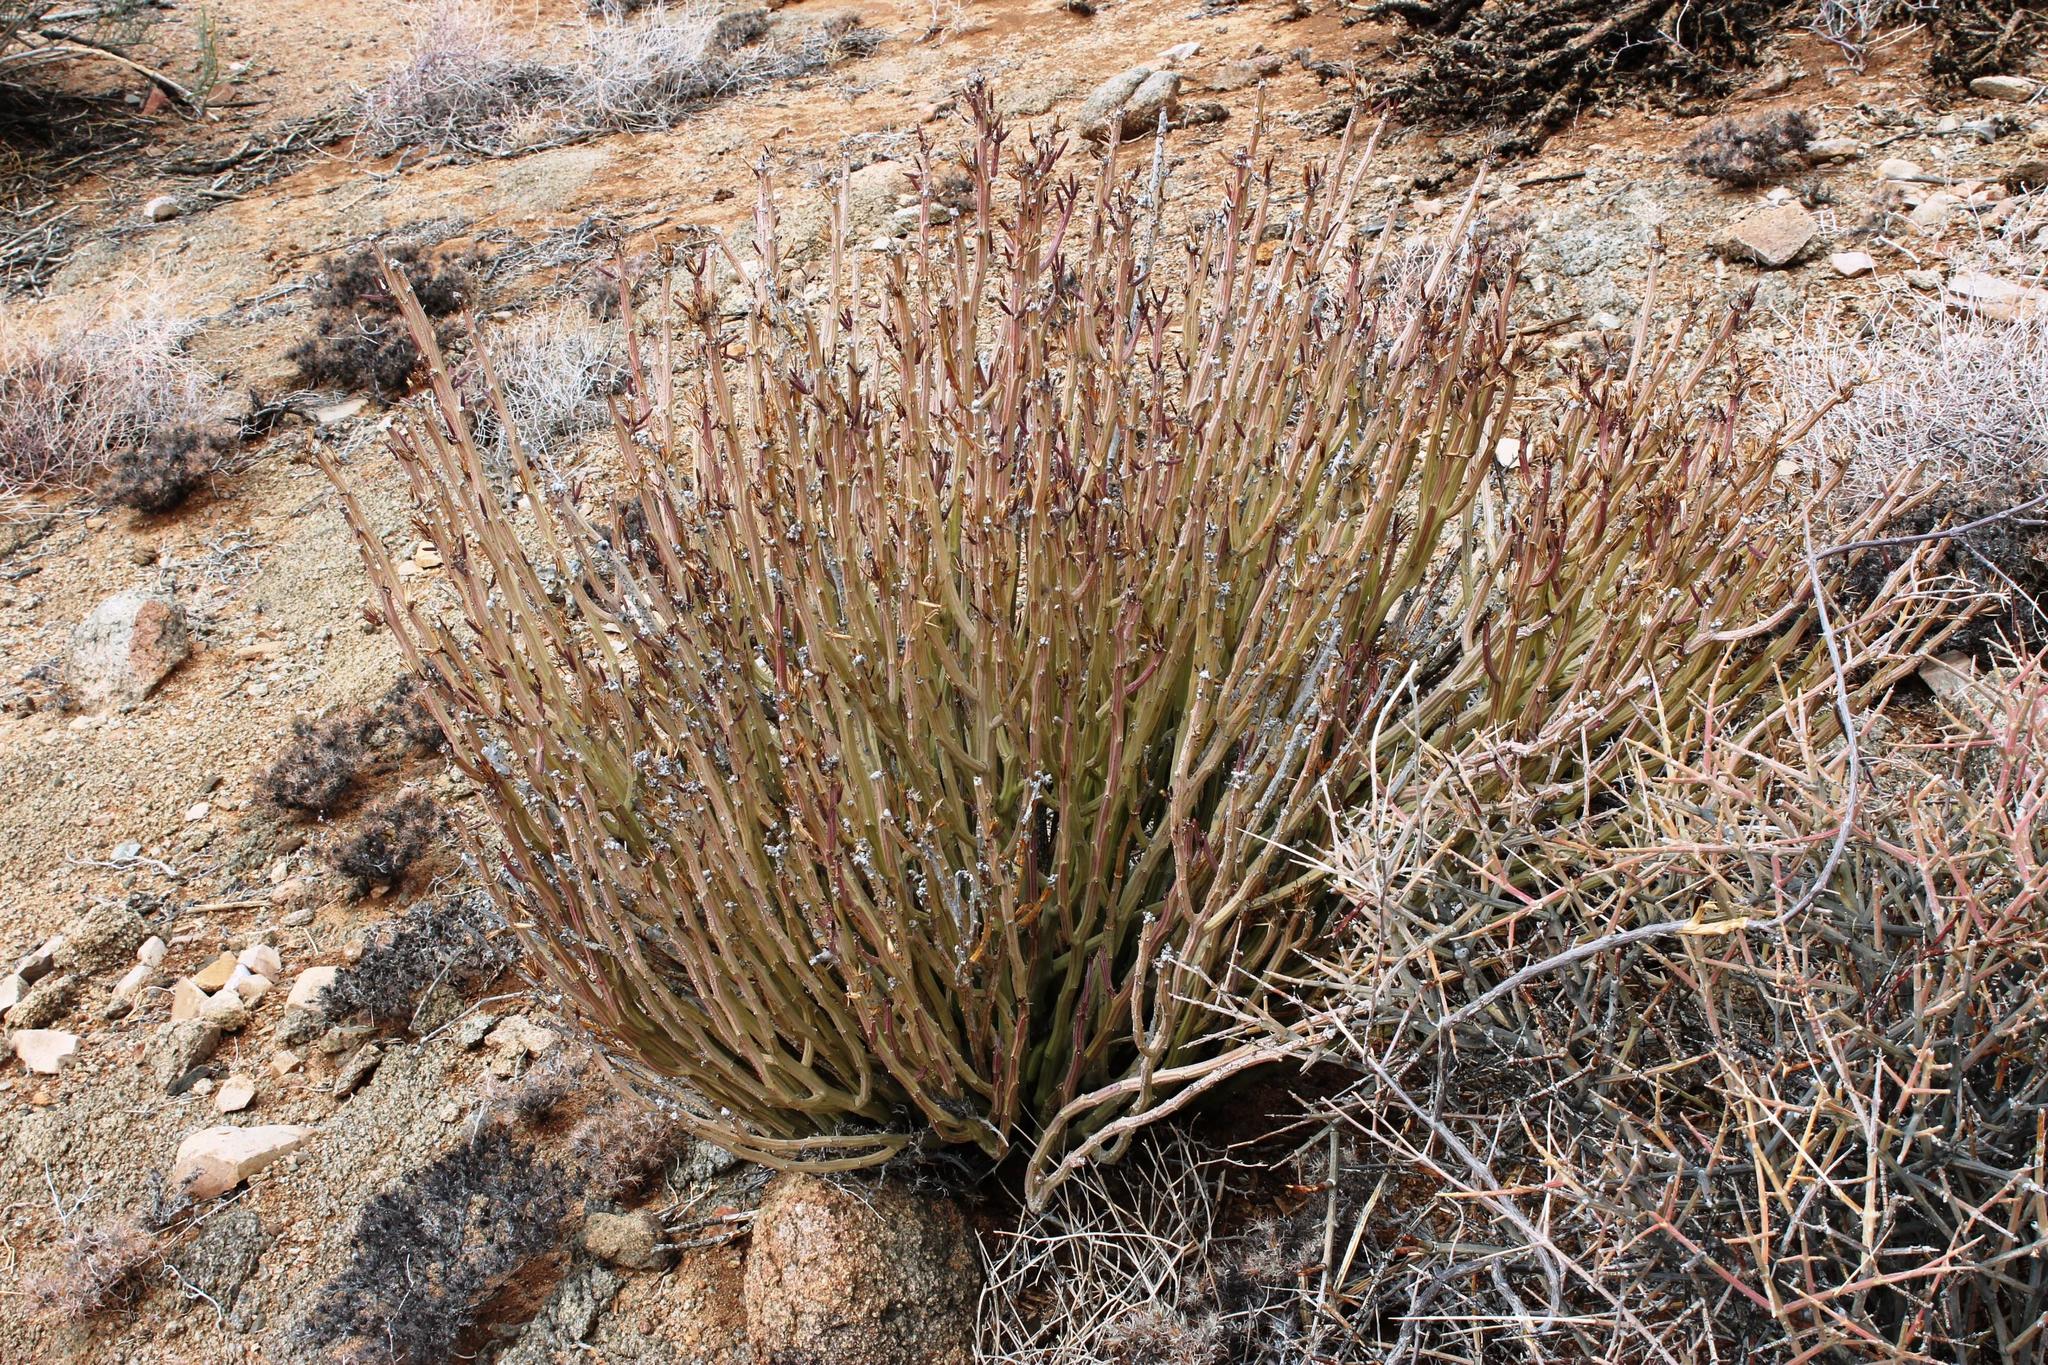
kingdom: Plantae
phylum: Tracheophyta
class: Magnoliopsida
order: Asterales
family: Asteraceae
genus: Curio
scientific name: Curio avasimontanus
